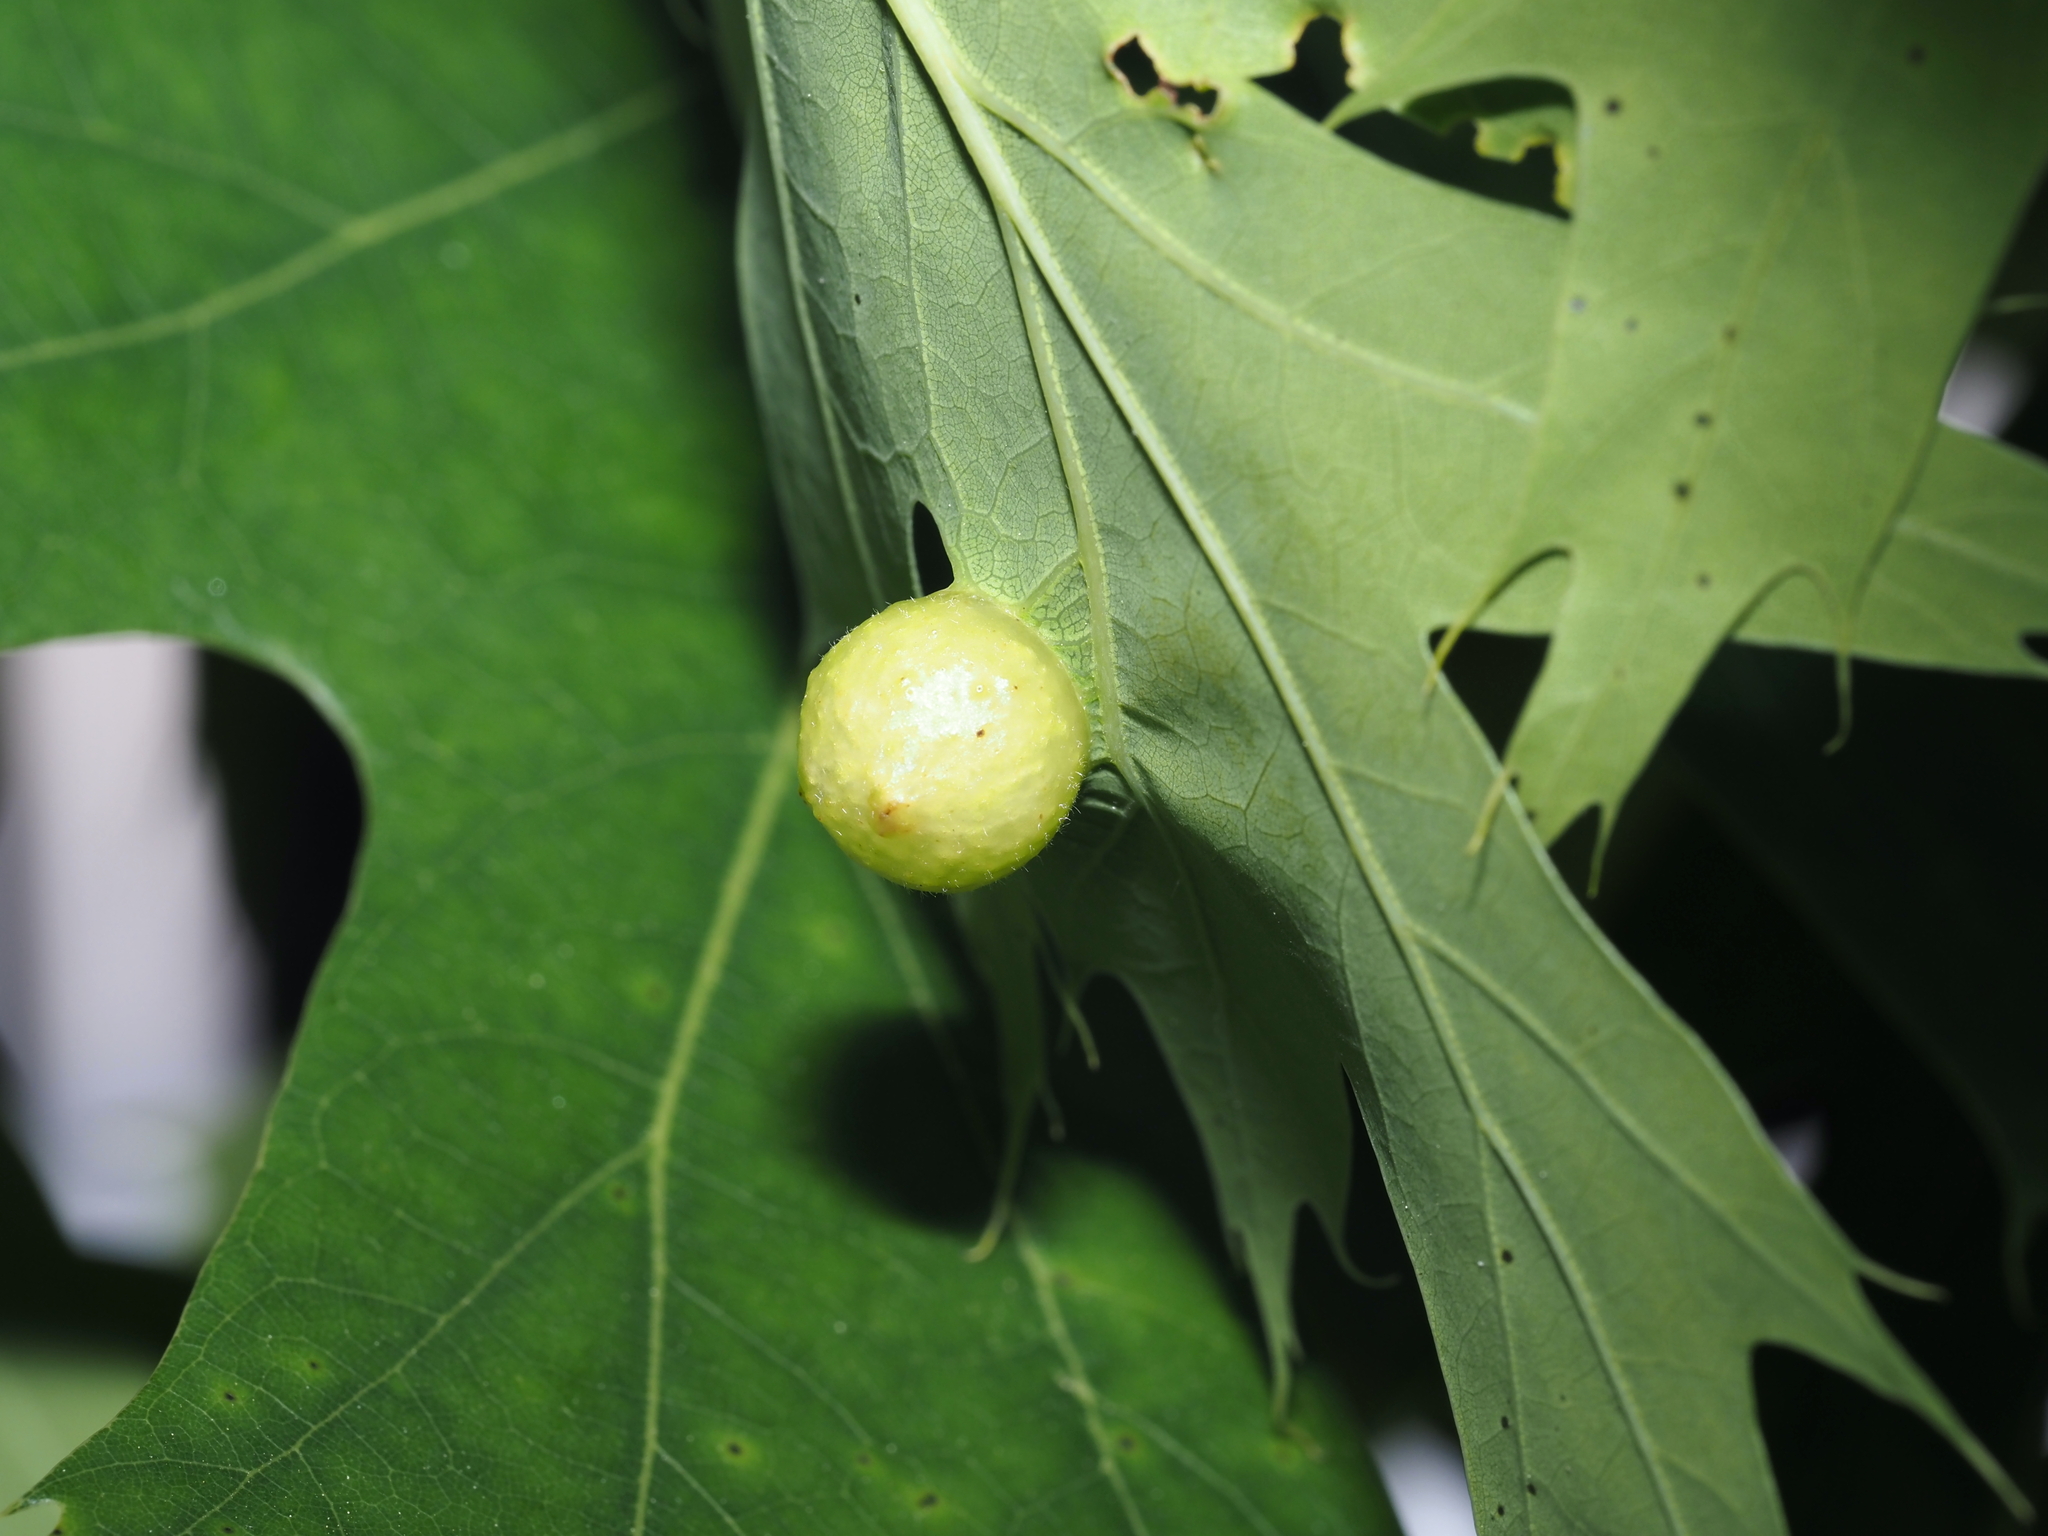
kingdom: Animalia
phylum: Arthropoda
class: Insecta
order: Hymenoptera
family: Cynipidae
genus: Amphibolips
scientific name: Amphibolips
